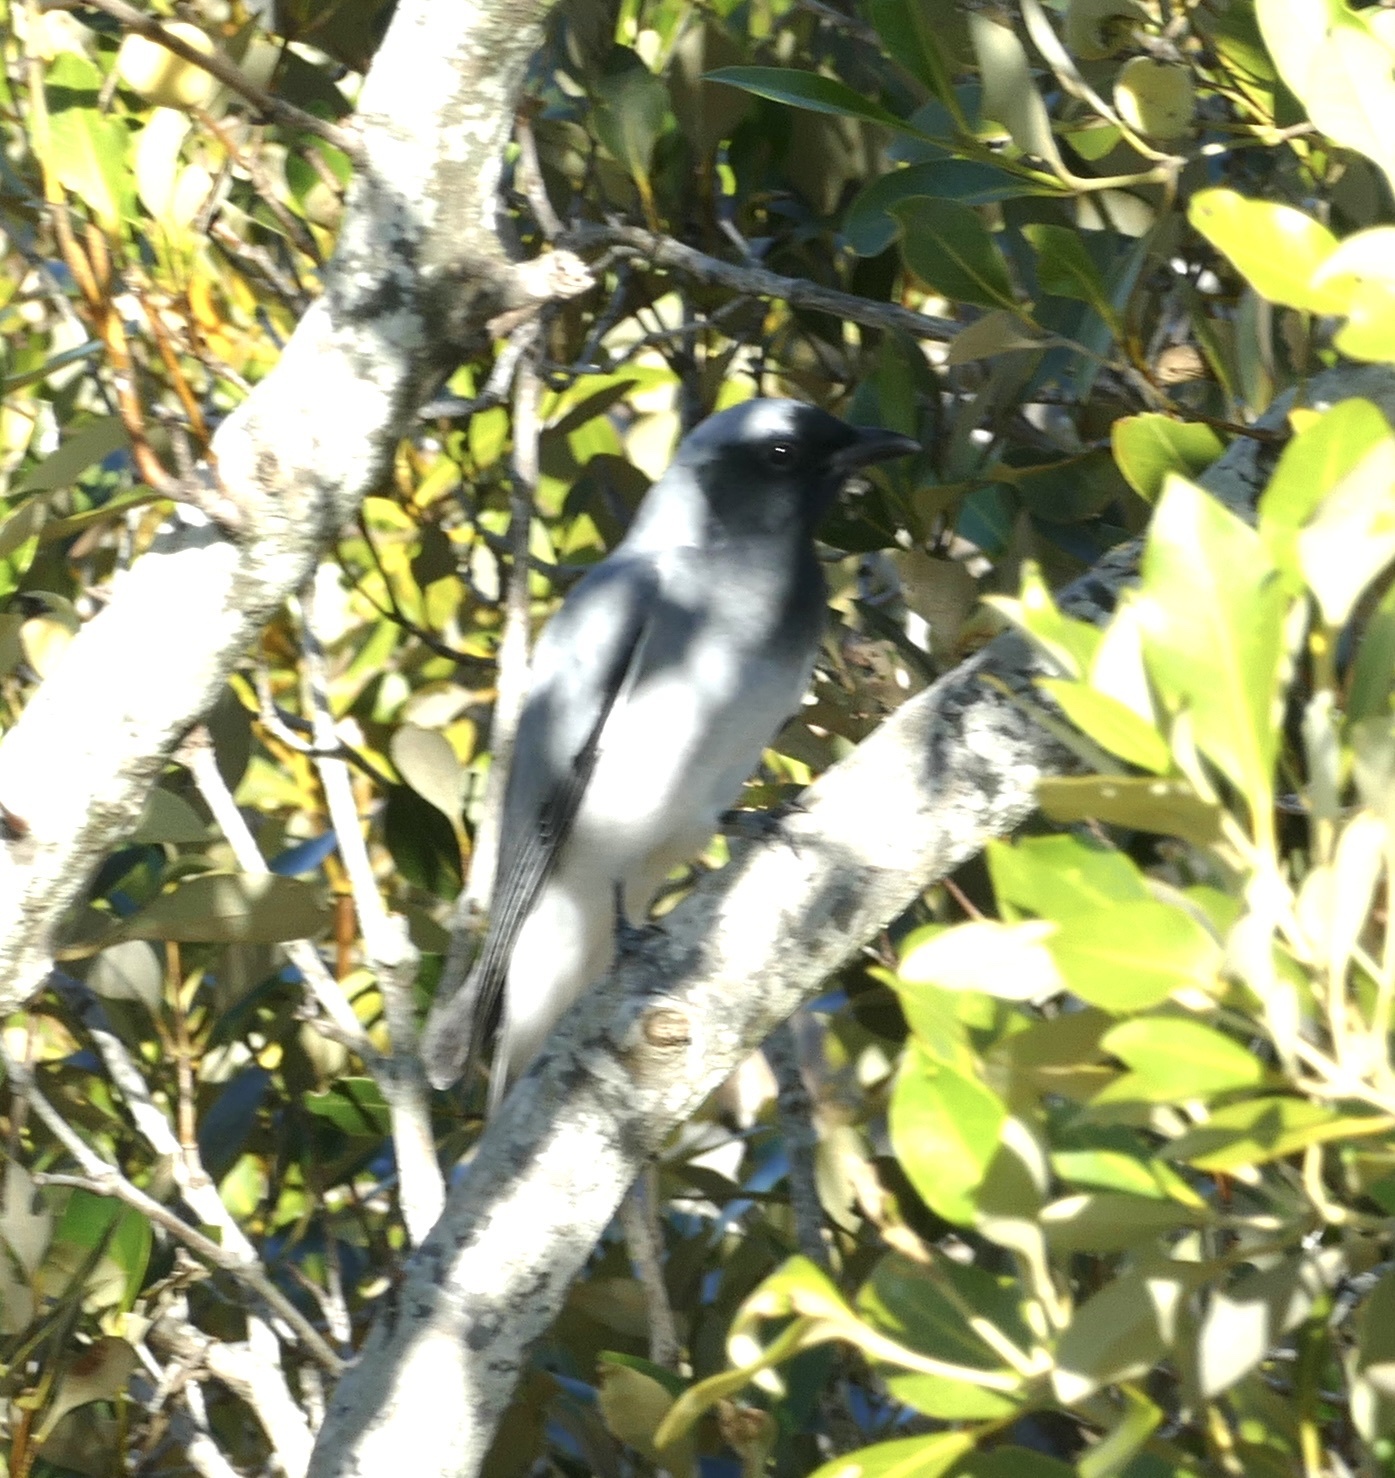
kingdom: Animalia
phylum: Chordata
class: Aves
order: Passeriformes
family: Campephagidae
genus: Coracina
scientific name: Coracina novaehollandiae
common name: Black-faced cuckooshrike
